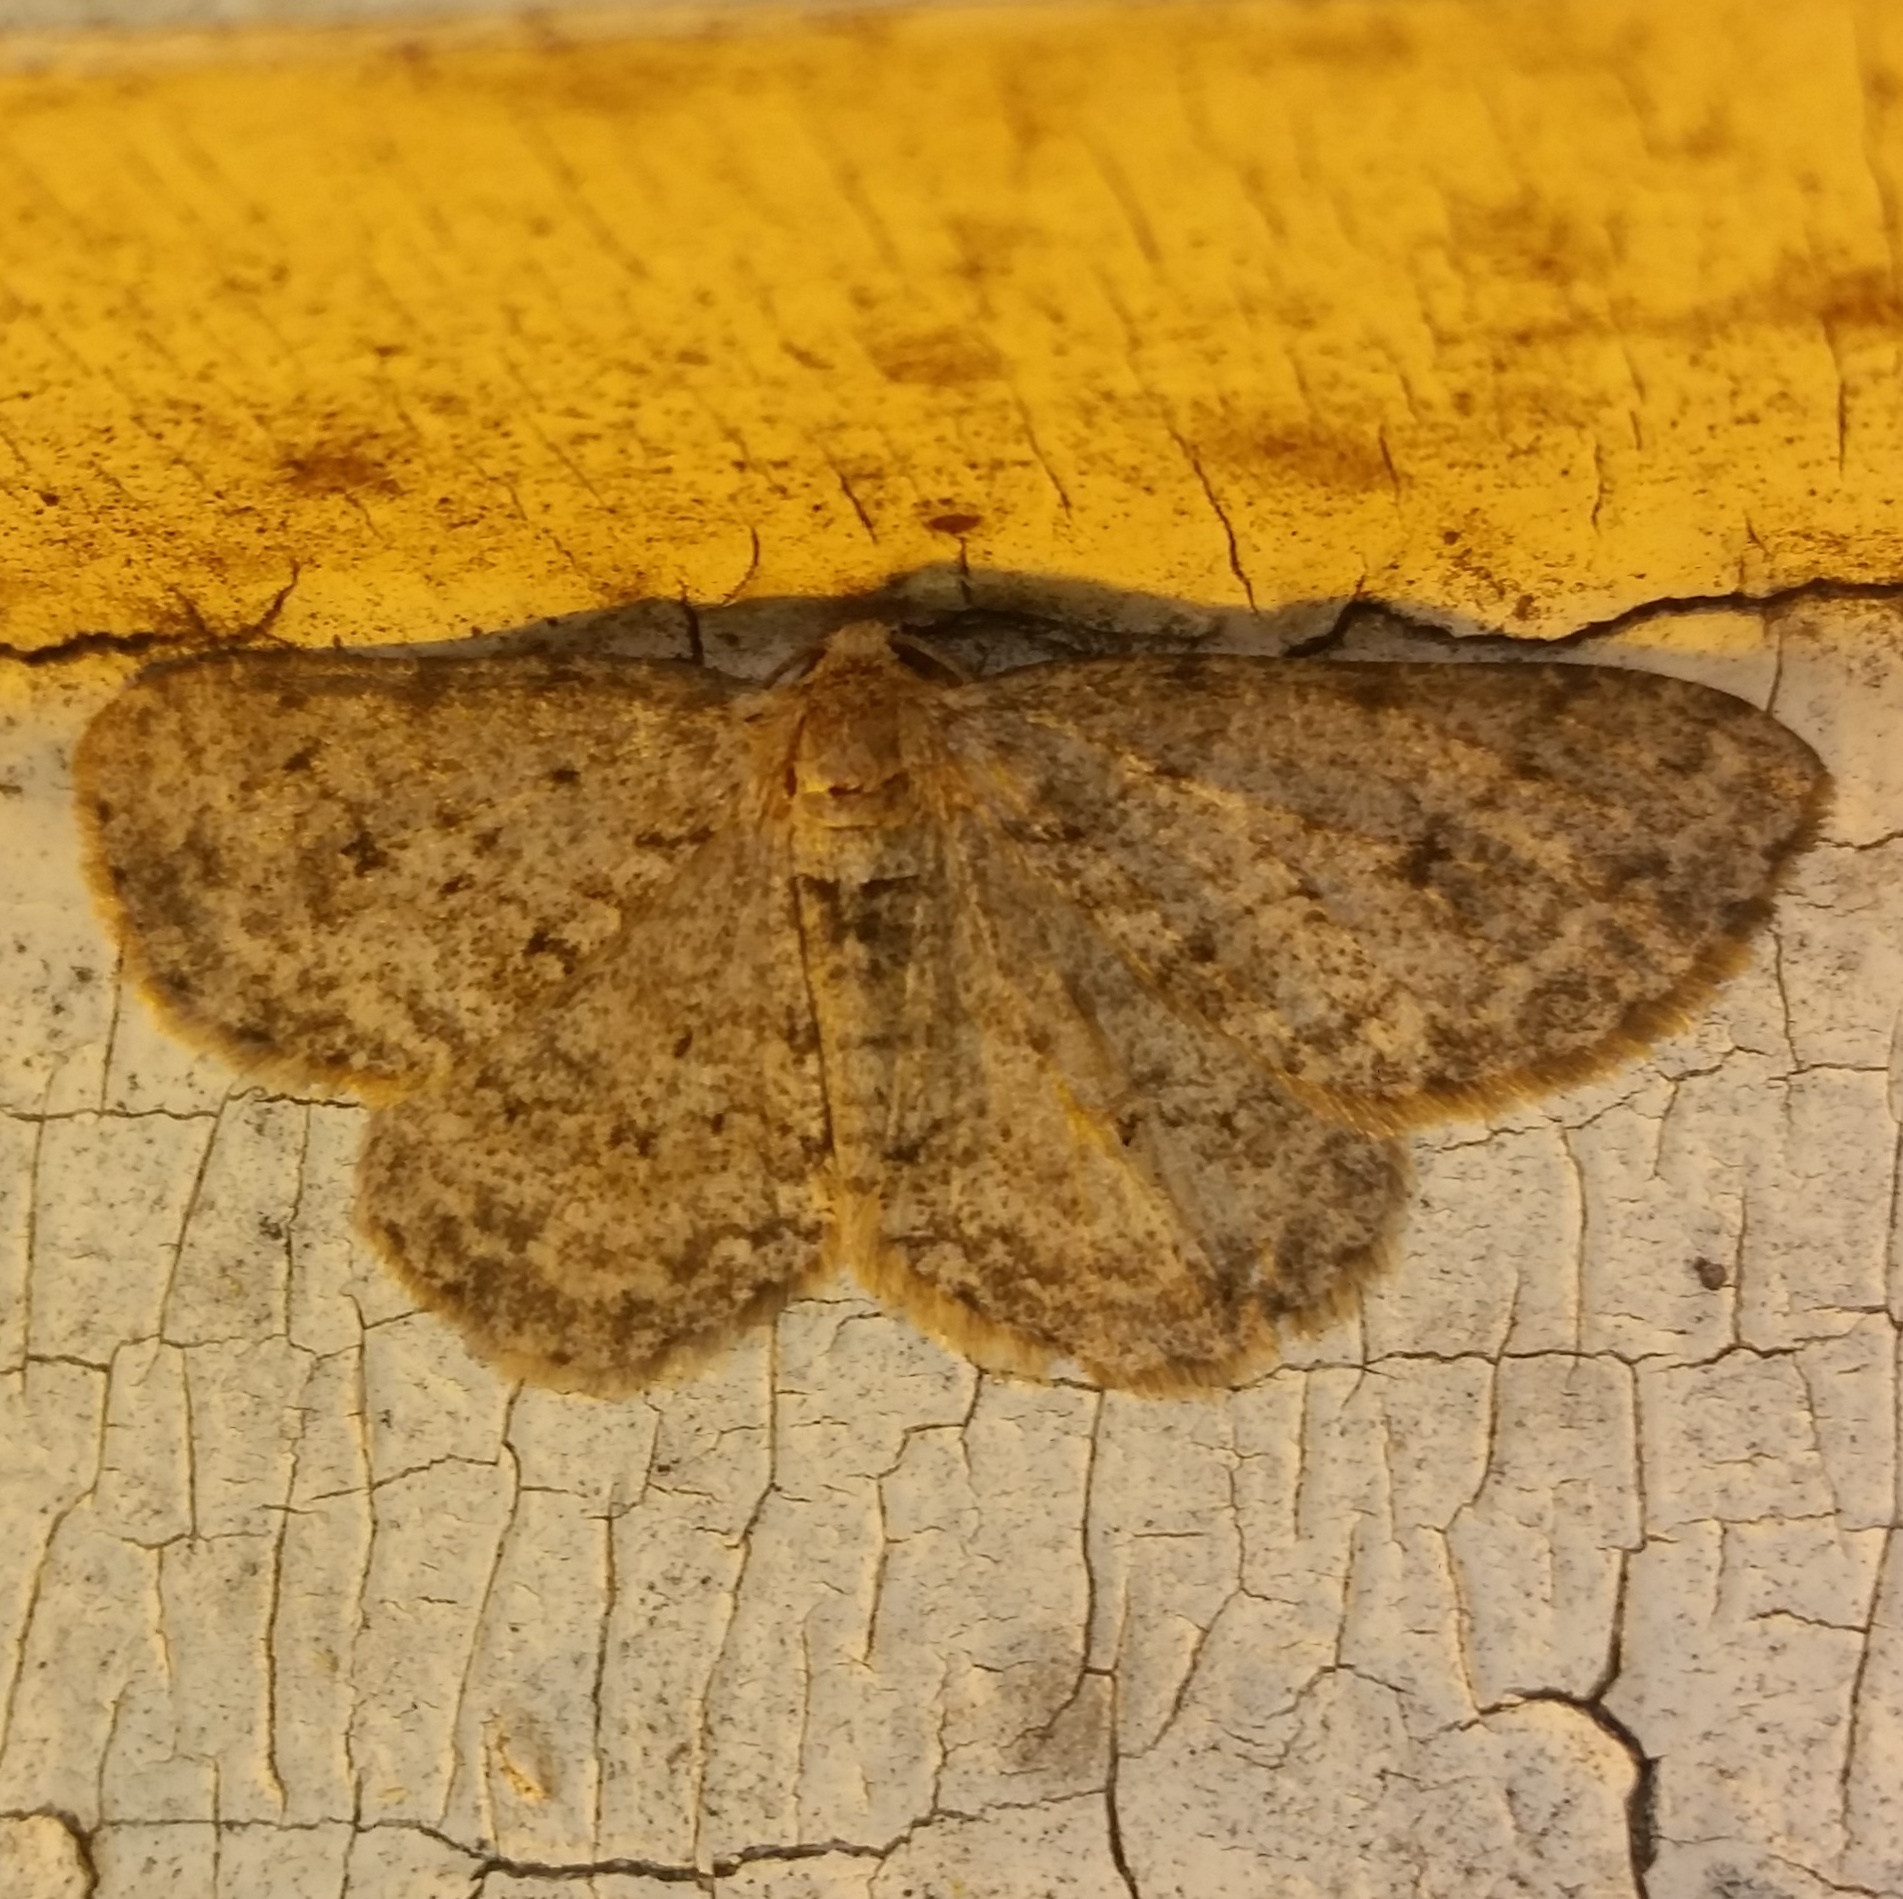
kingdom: Animalia
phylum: Arthropoda
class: Insecta
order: Lepidoptera
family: Geometridae
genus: Ectropis
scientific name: Ectropis crepuscularia
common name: Engrailed
